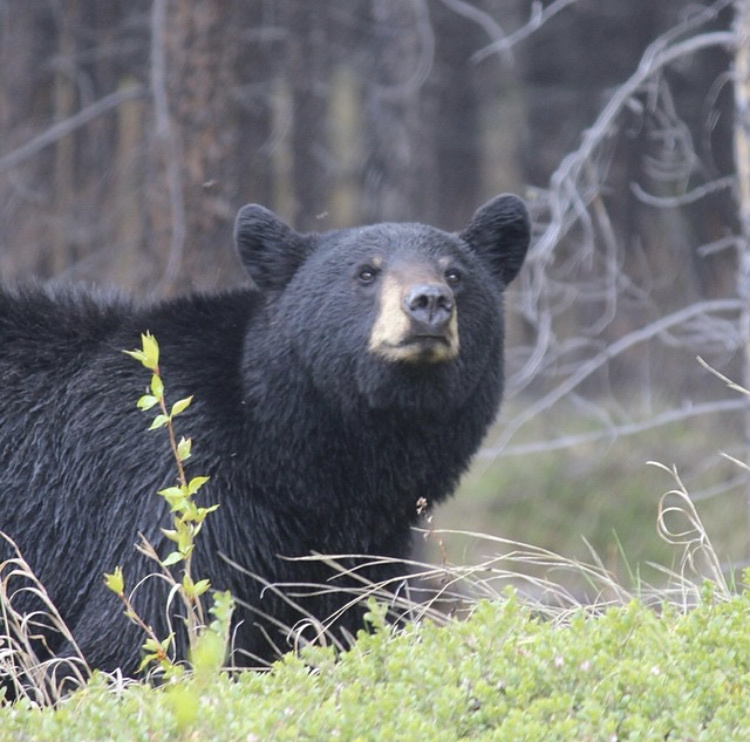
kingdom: Animalia
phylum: Chordata
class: Mammalia
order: Carnivora
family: Ursidae
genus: Ursus
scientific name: Ursus americanus
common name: American black bear
